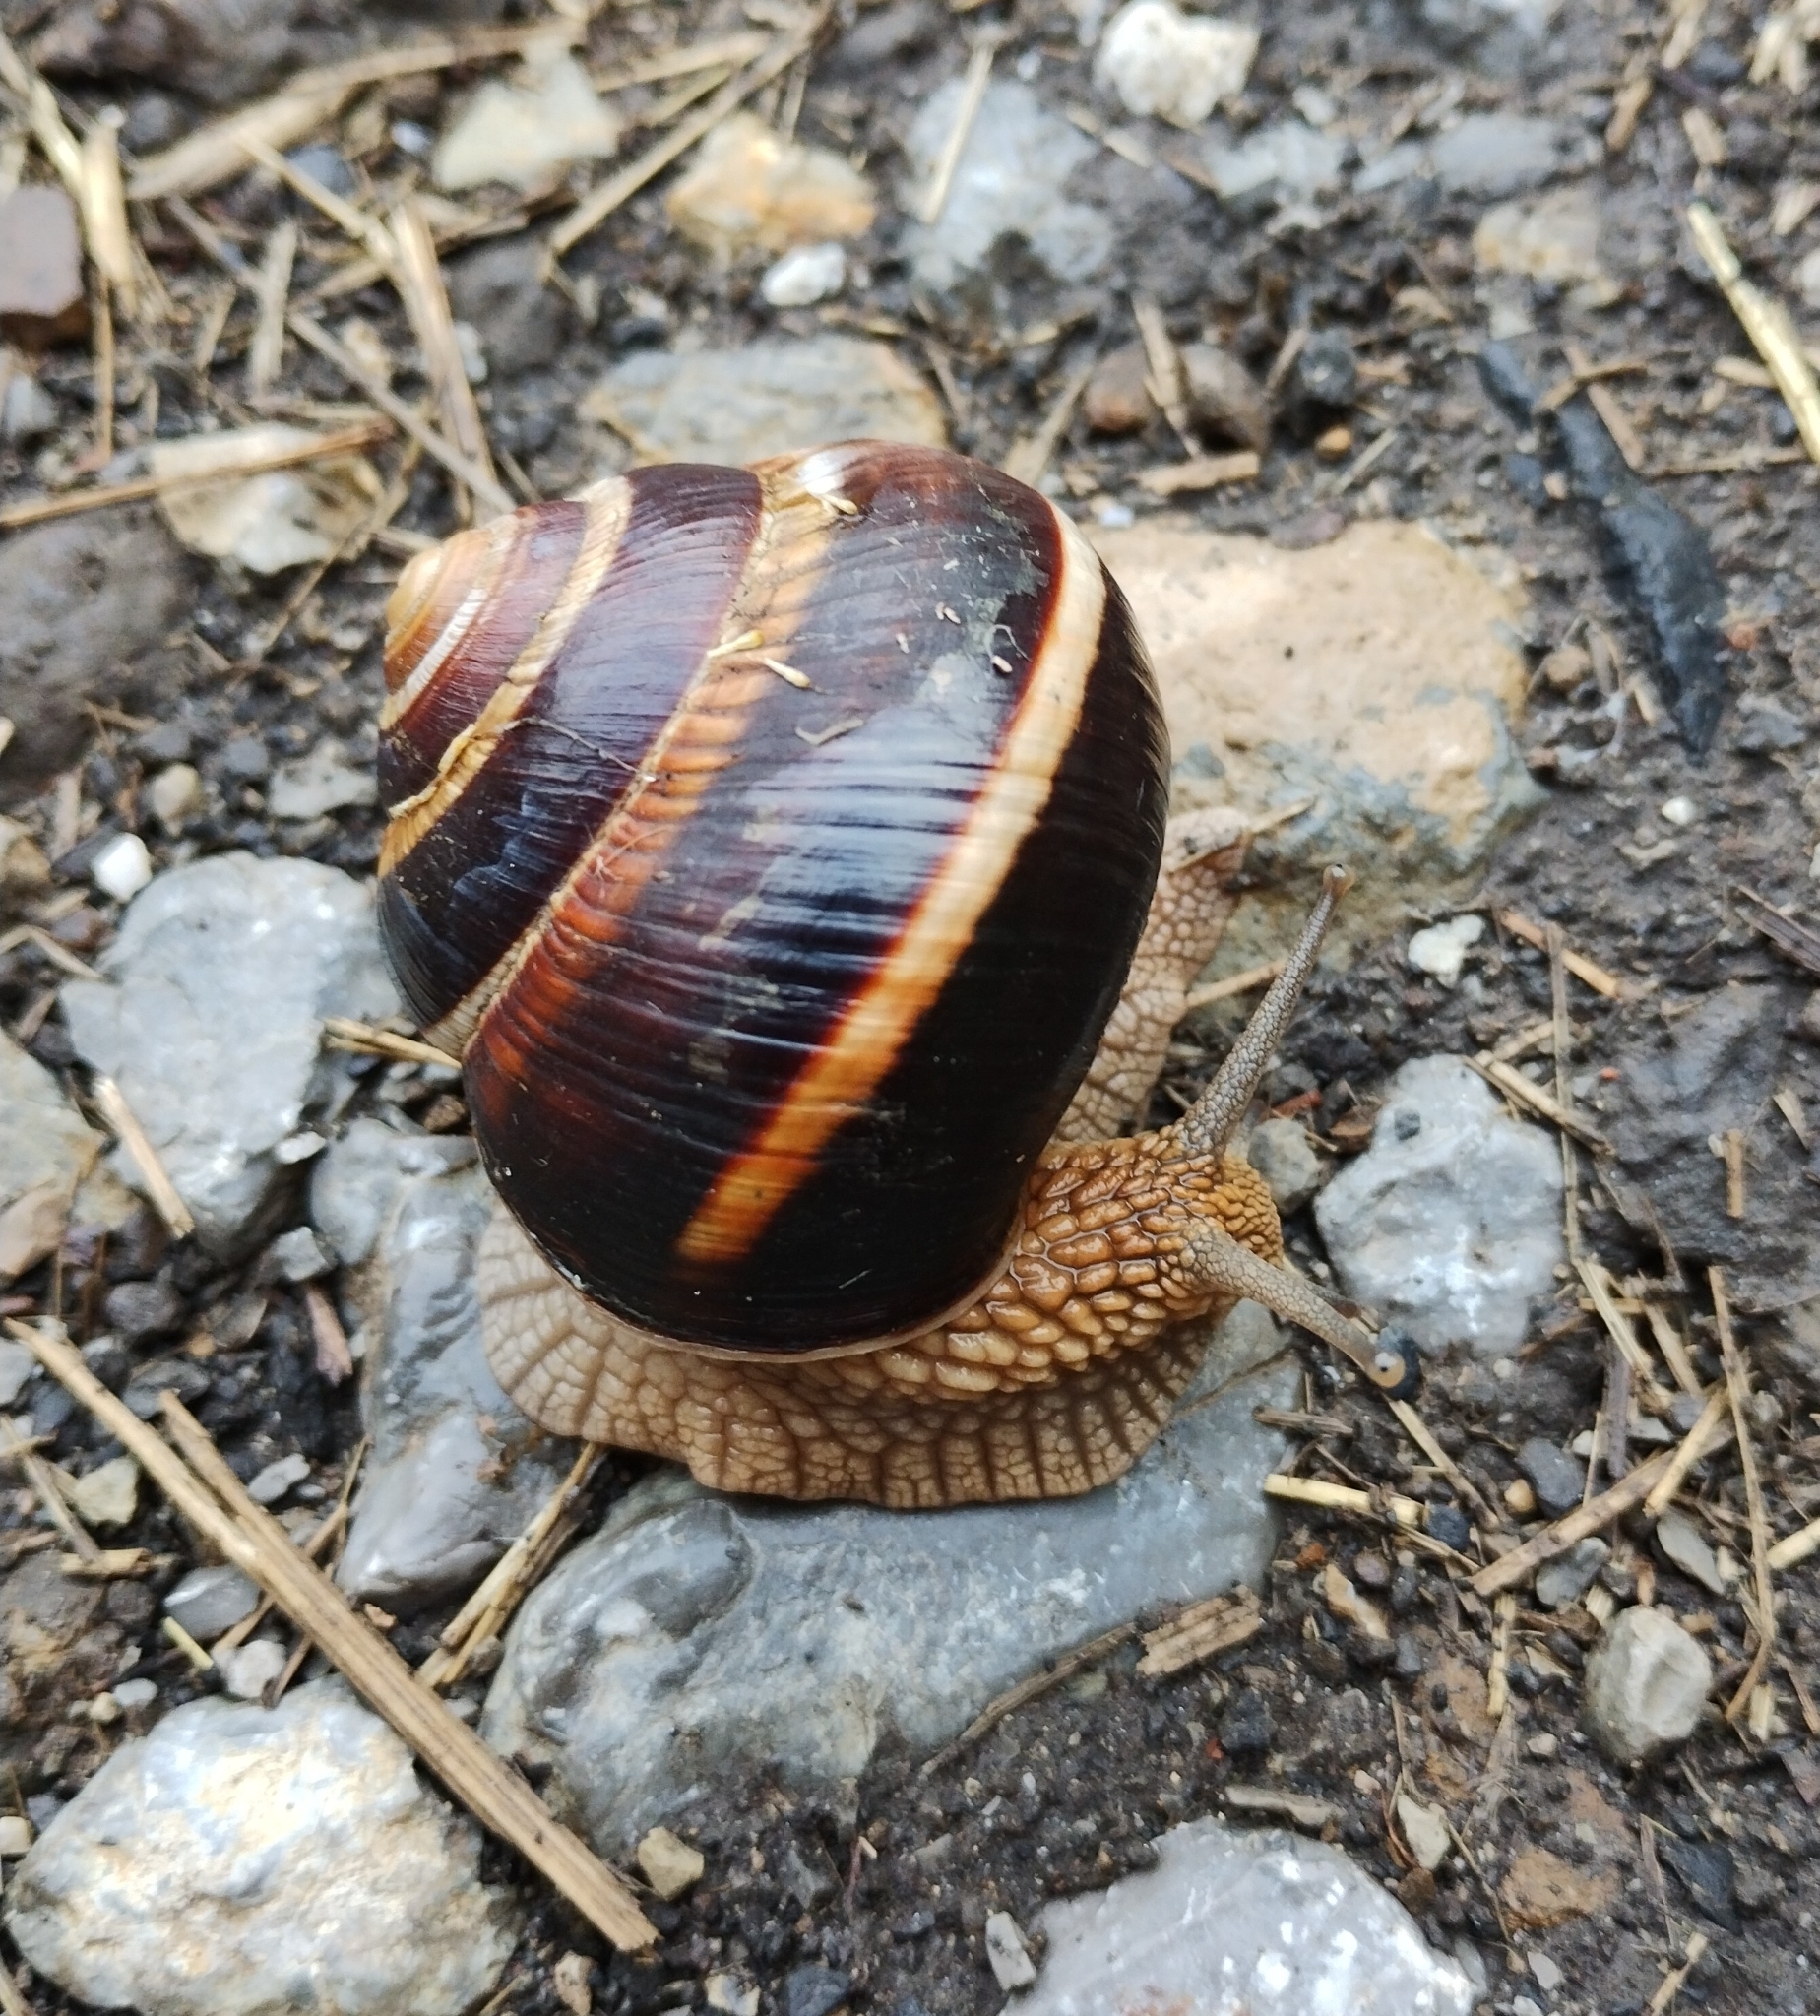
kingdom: Animalia
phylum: Mollusca
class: Gastropoda
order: Stylommatophora
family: Helicidae
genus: Helix
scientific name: Helix lucorum
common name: Turkish snail
